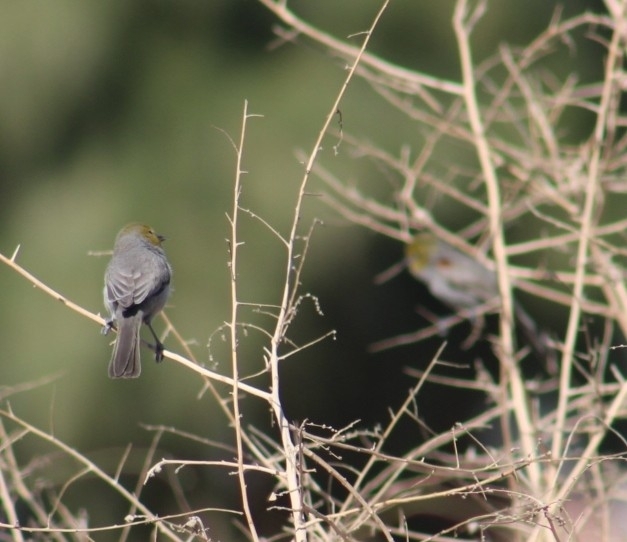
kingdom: Animalia
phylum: Chordata
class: Aves
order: Passeriformes
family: Remizidae
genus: Auriparus
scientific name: Auriparus flaviceps
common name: Verdin
